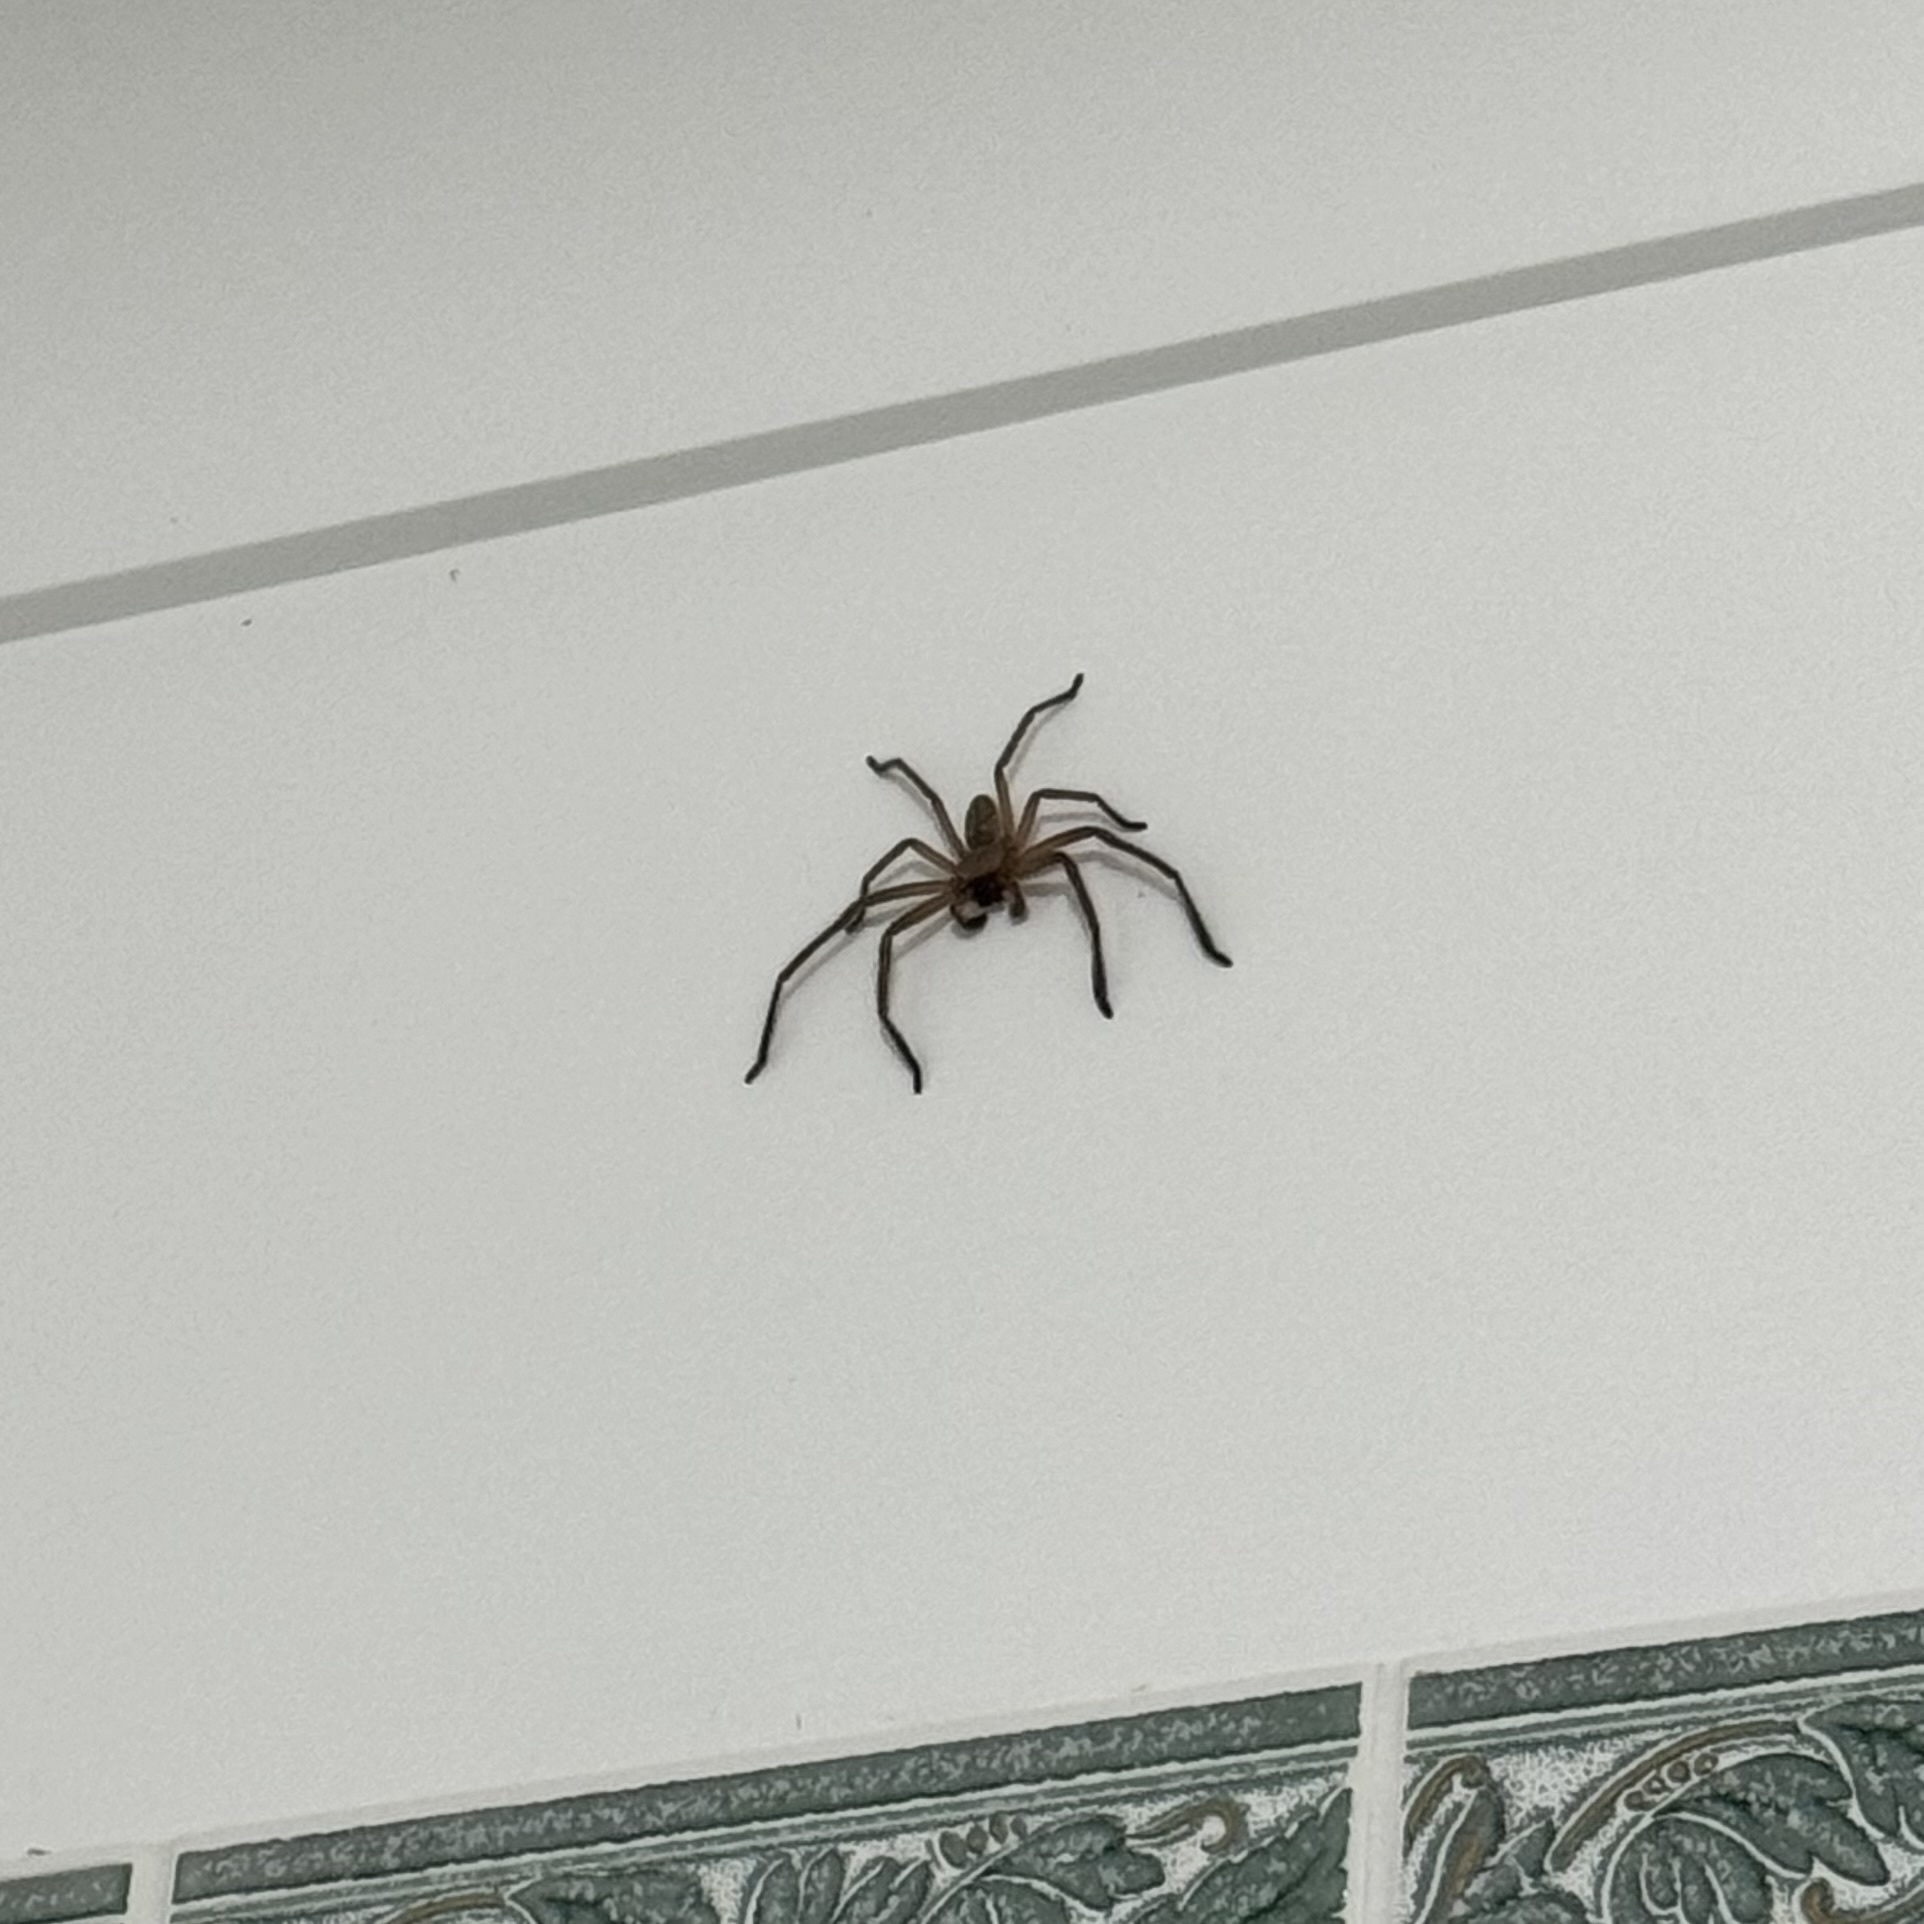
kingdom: Animalia
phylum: Arthropoda
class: Arachnida
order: Araneae
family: Sparassidae
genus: Delena
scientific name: Delena cancerides
